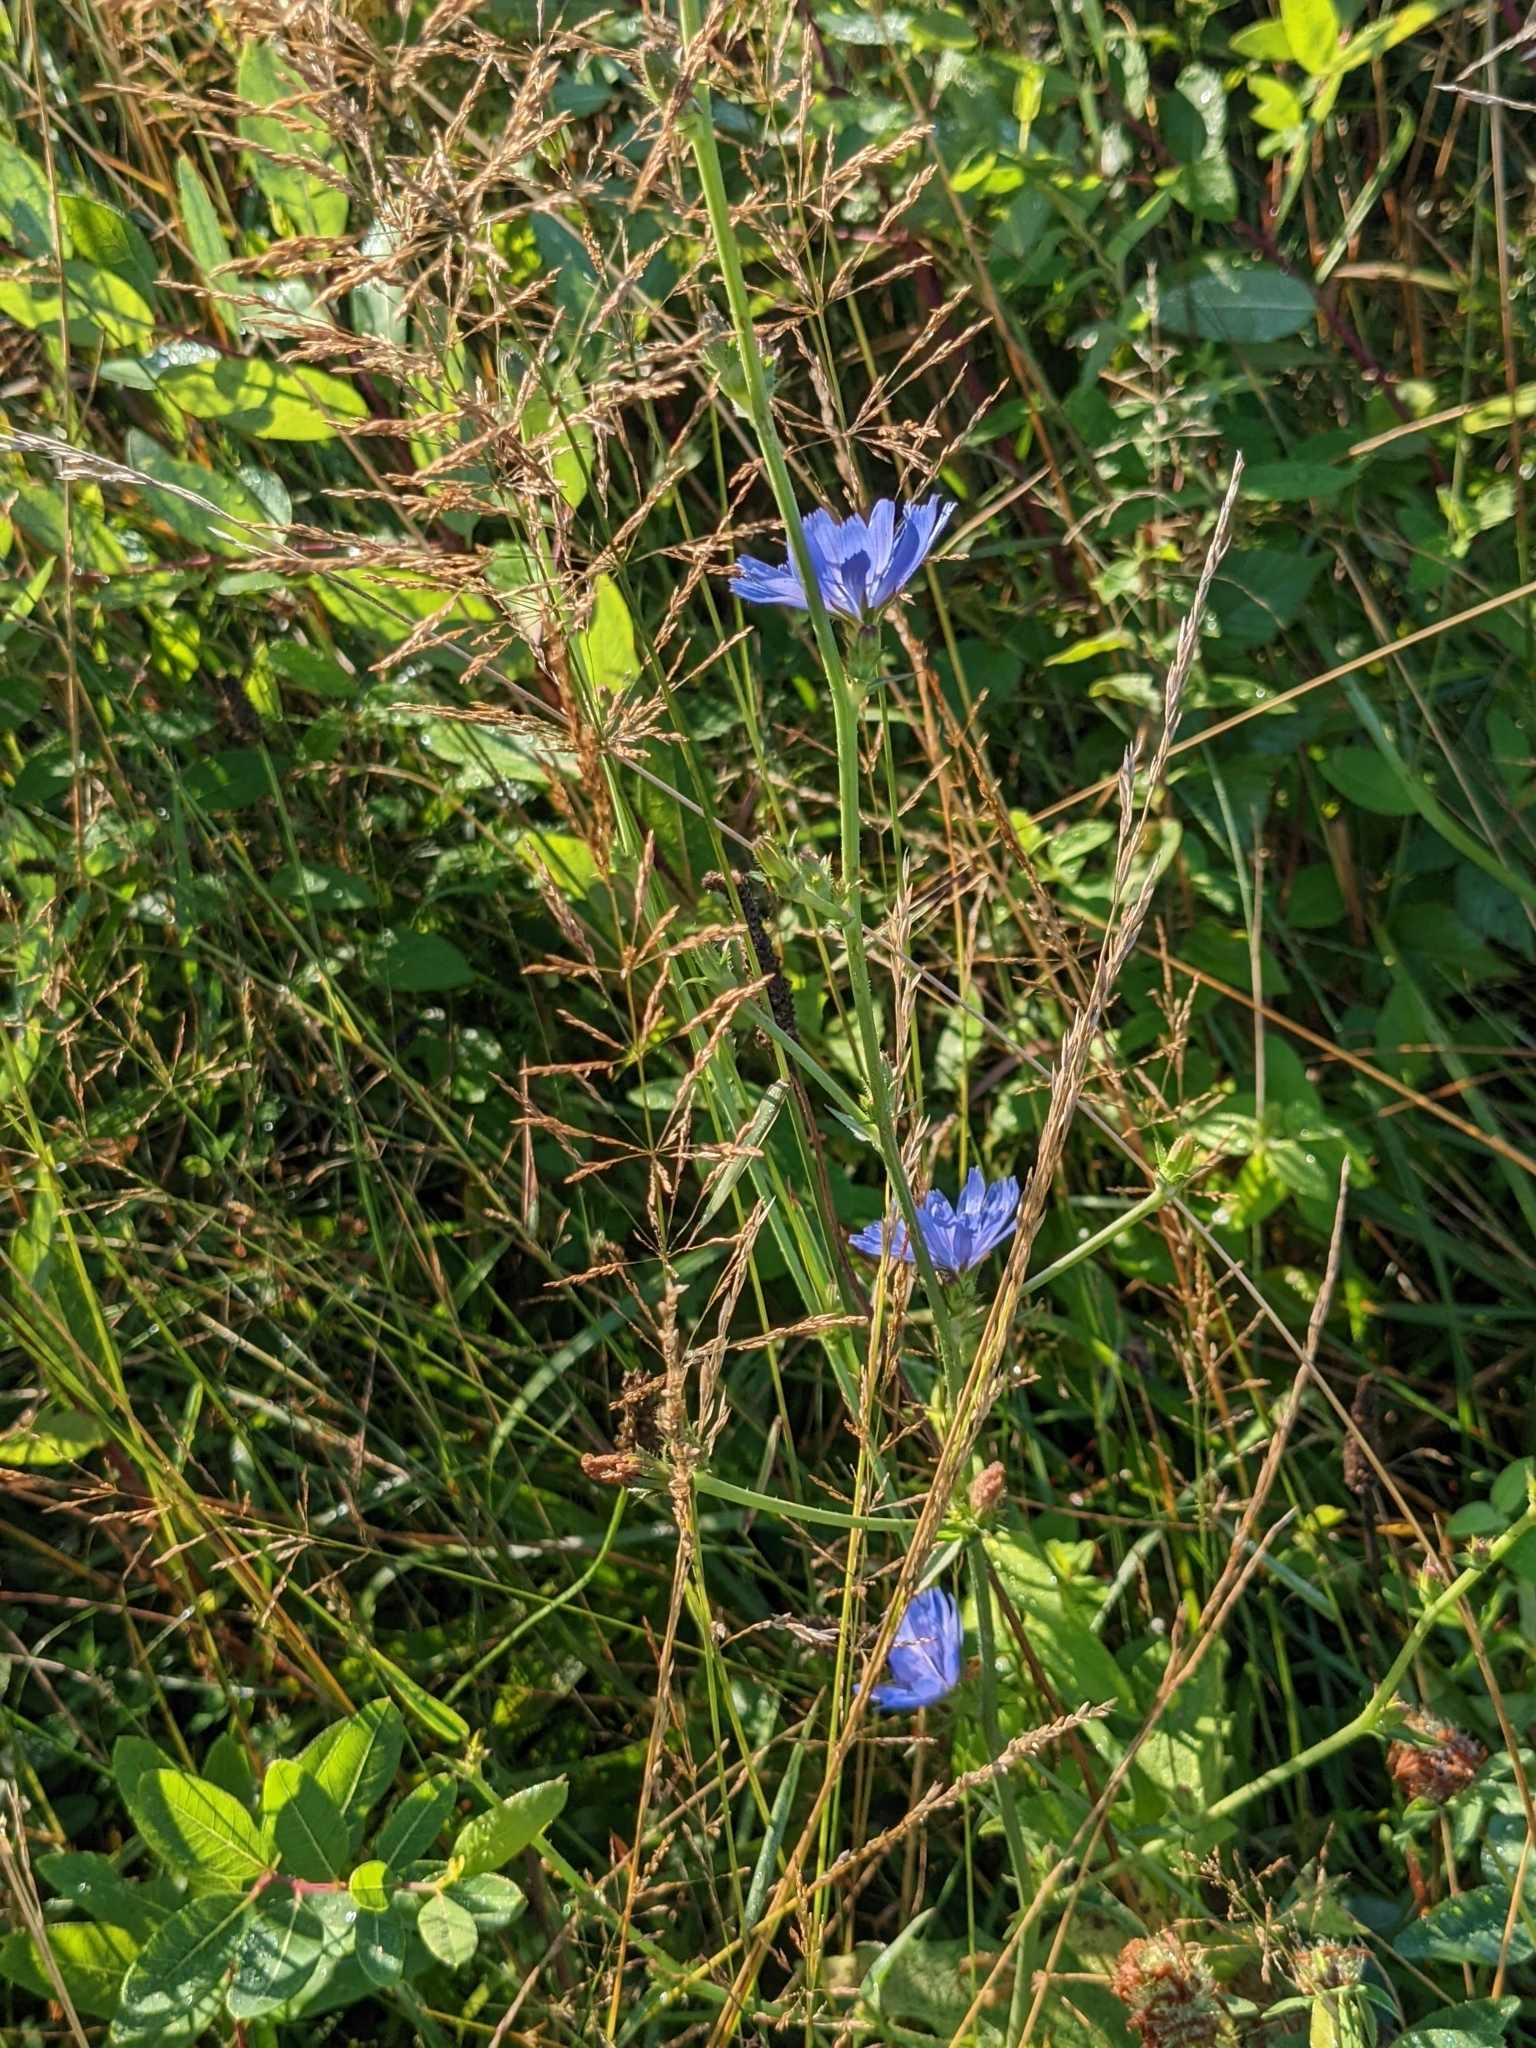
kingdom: Plantae
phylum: Tracheophyta
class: Magnoliopsida
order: Asterales
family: Asteraceae
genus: Cichorium
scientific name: Cichorium intybus
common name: Chicory
